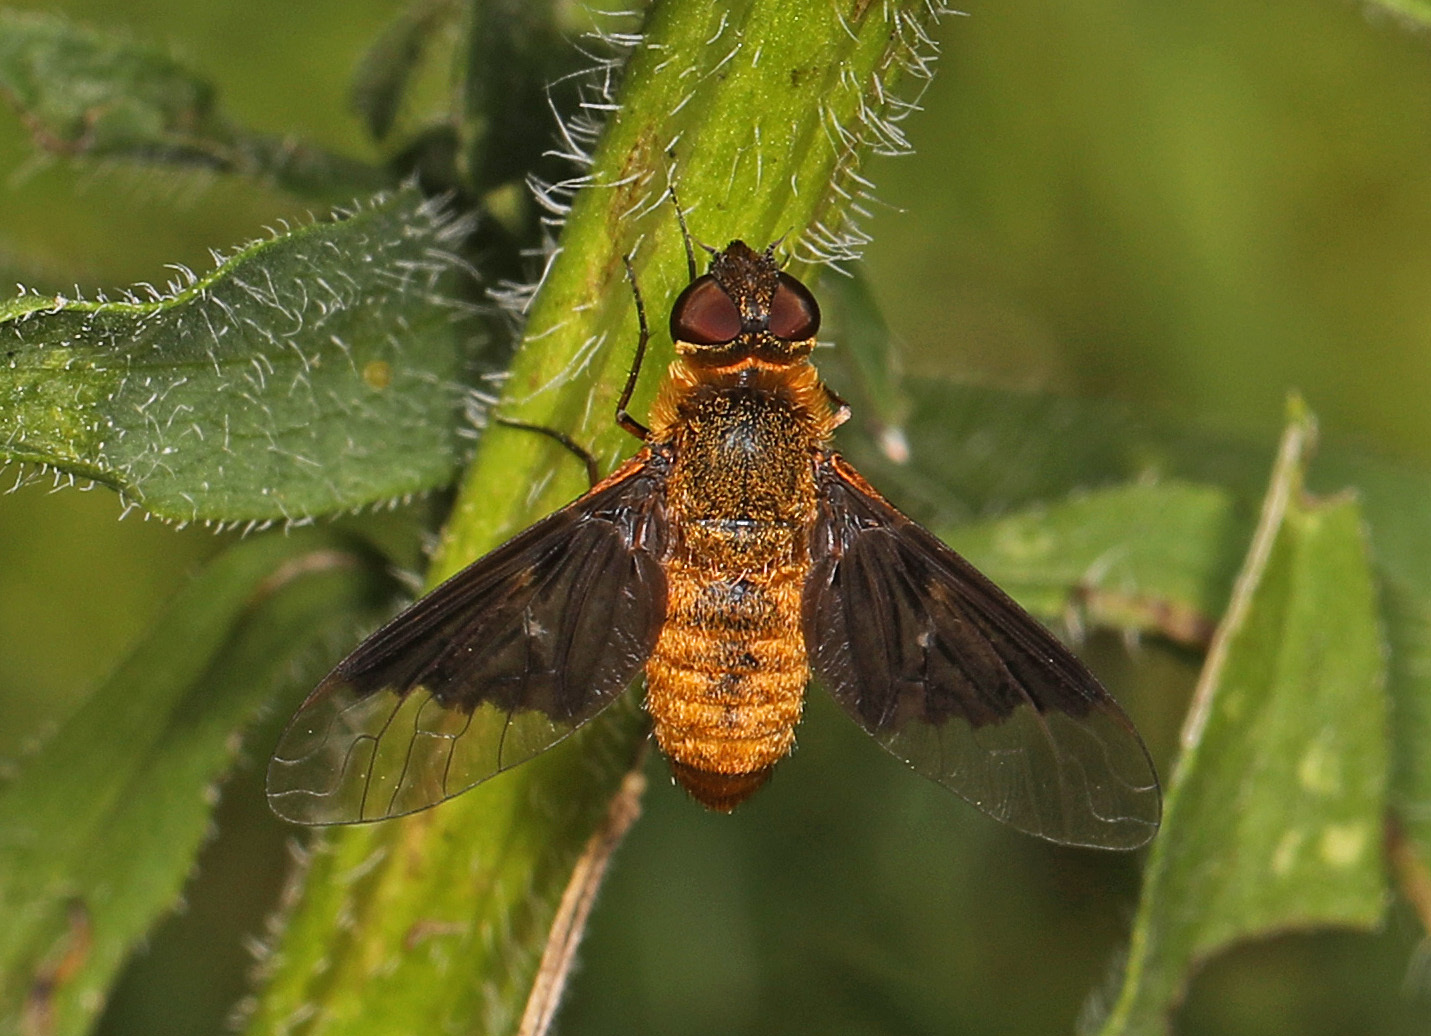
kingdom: Animalia
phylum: Arthropoda
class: Insecta
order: Diptera
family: Bombyliidae
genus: Chrysanthrax
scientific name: Chrysanthrax cypris
